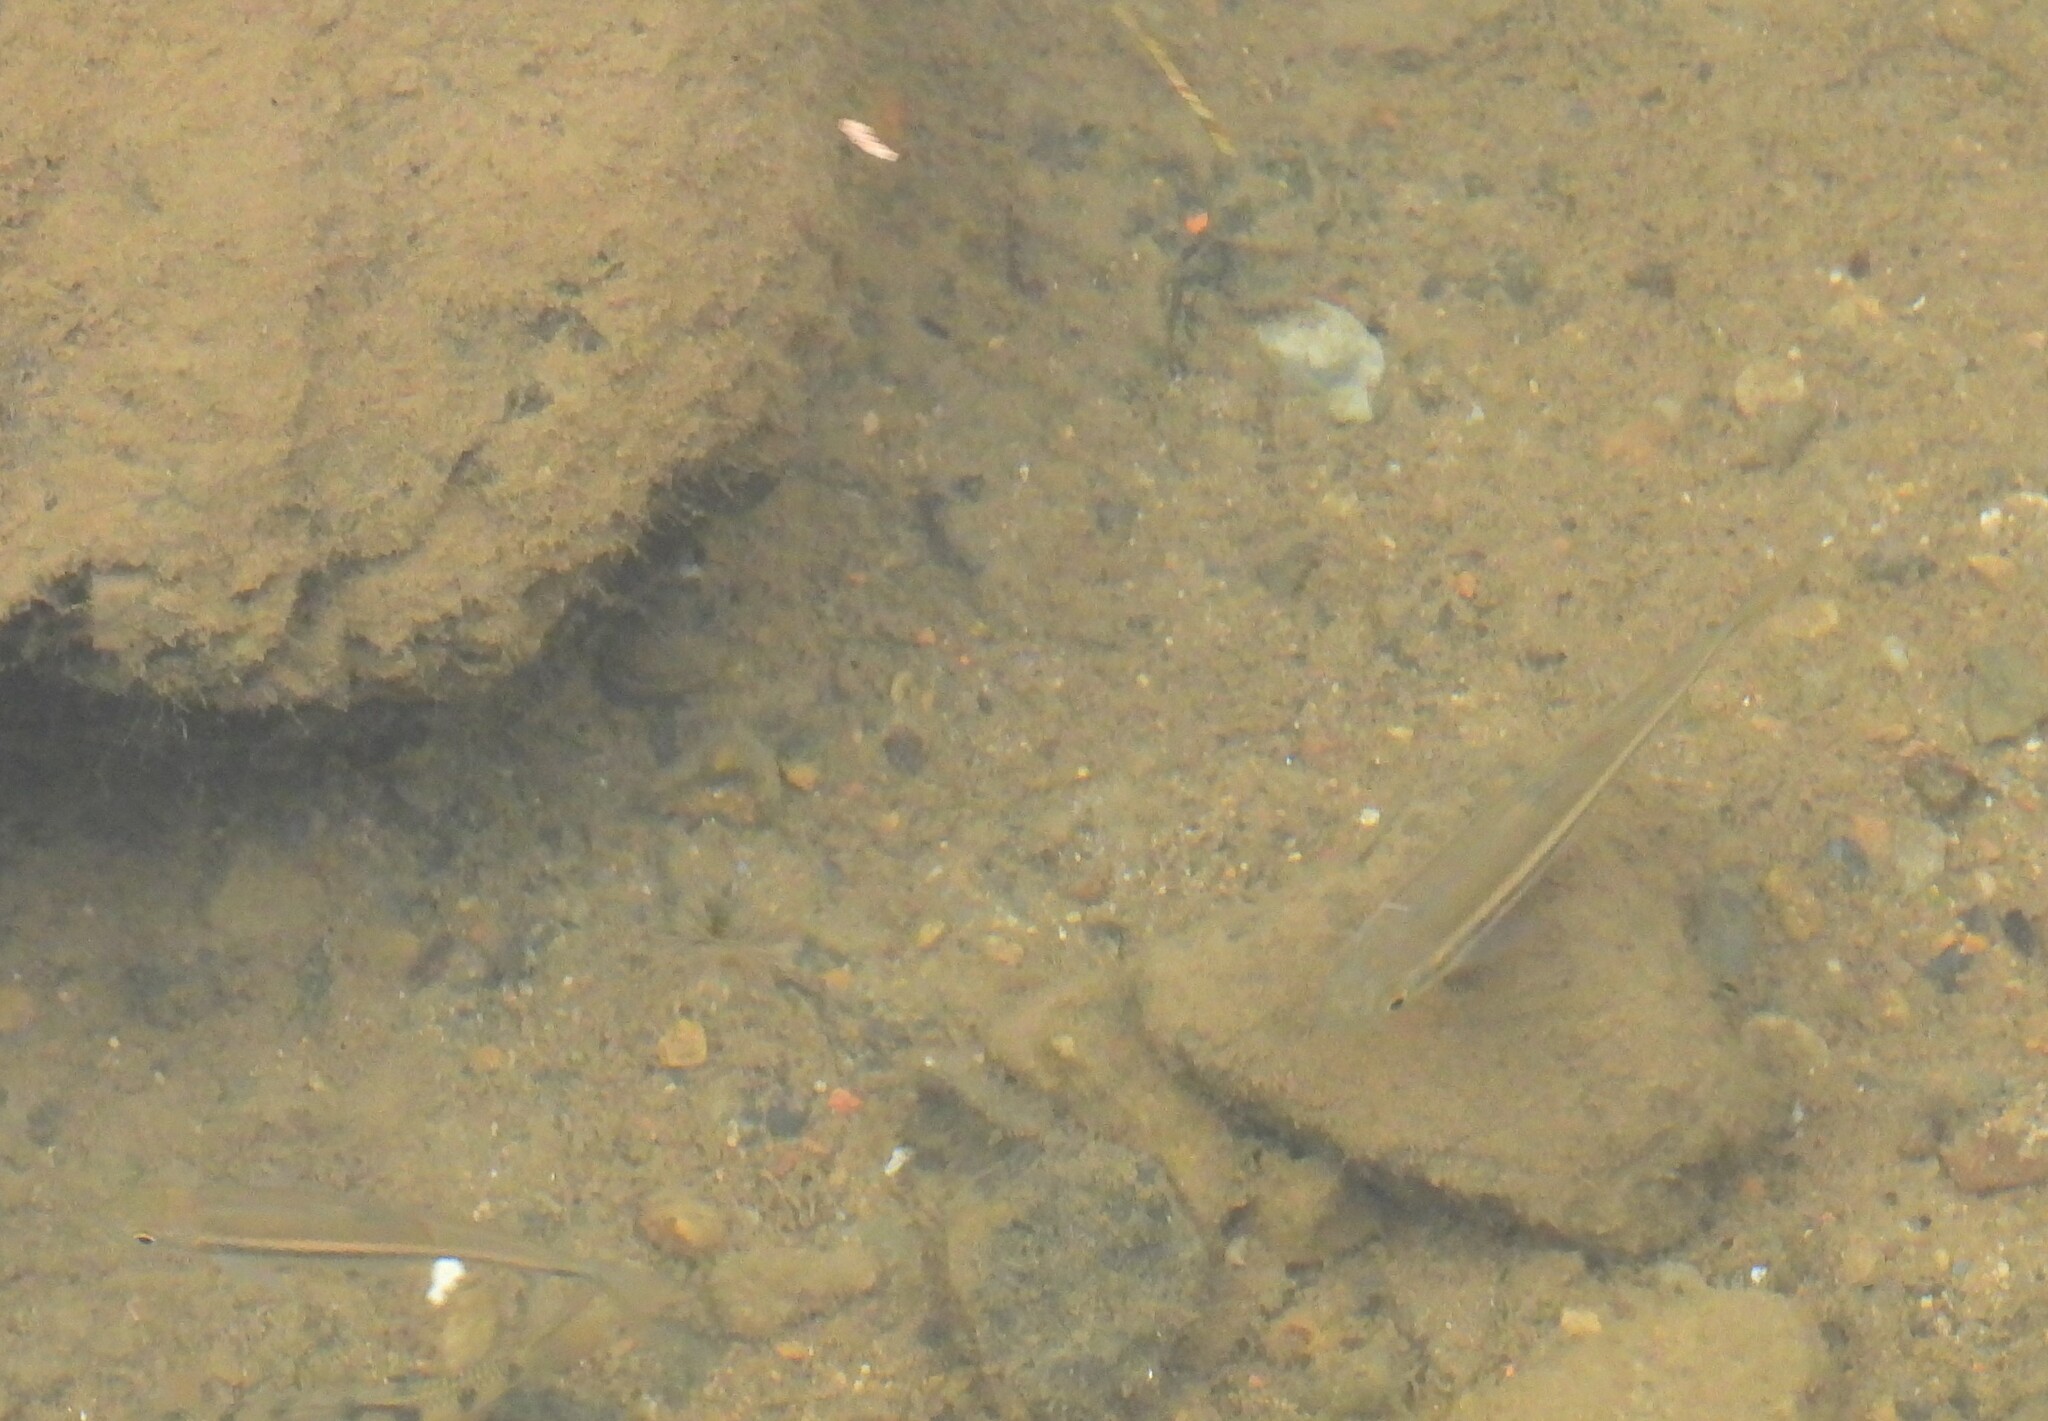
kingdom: Animalia
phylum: Chordata
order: Cypriniformes
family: Cyprinidae
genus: Candidia
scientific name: Candidia barbata
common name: Lake candidus dace
